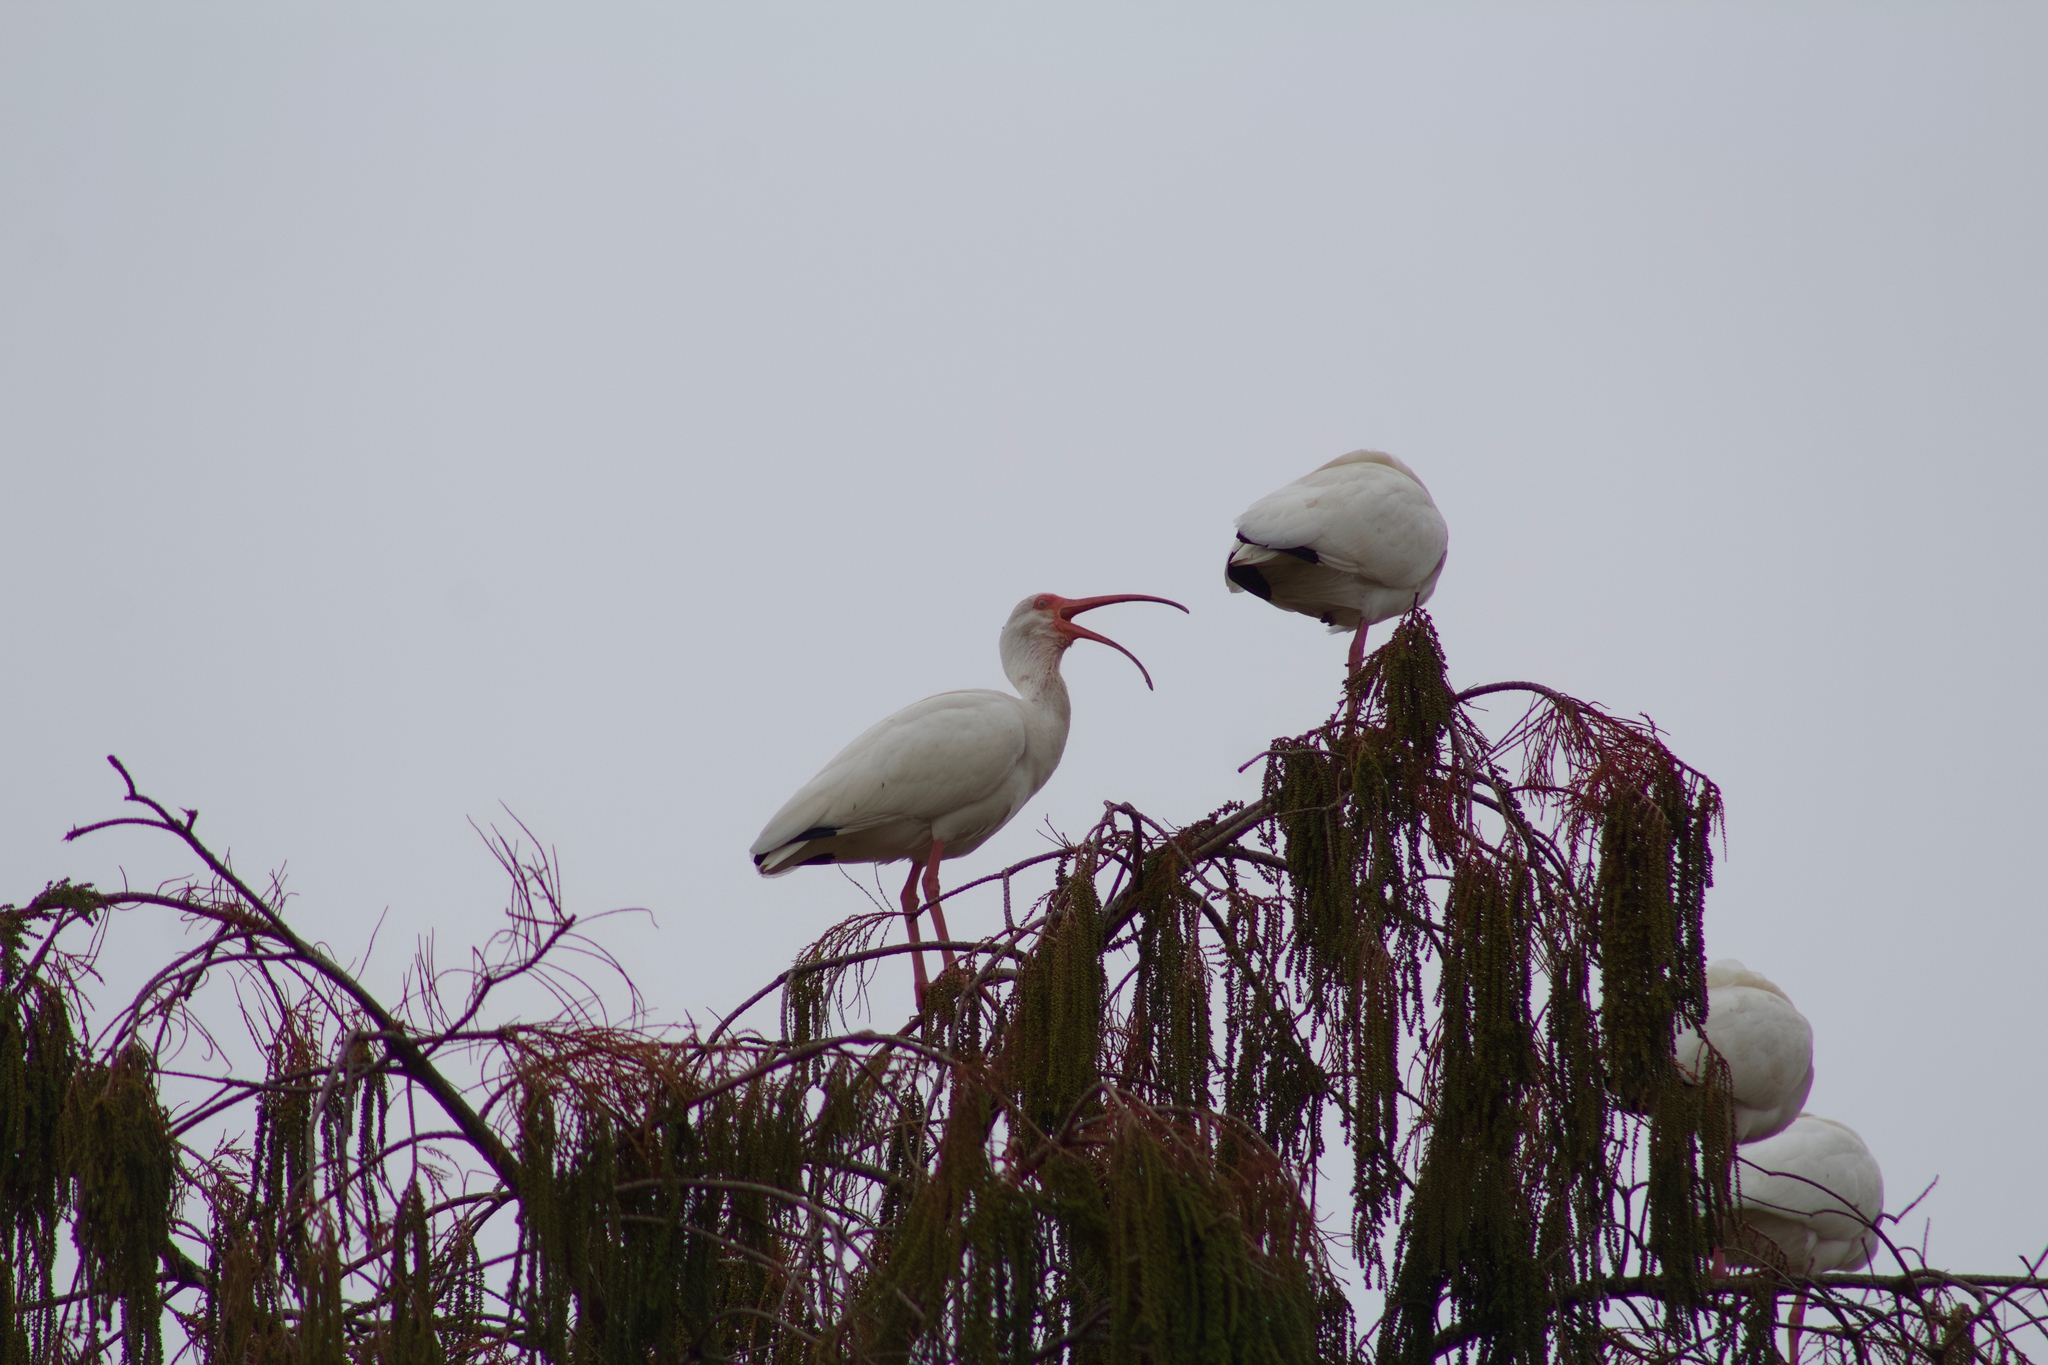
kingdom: Animalia
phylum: Chordata
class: Aves
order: Pelecaniformes
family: Threskiornithidae
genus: Eudocimus
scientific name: Eudocimus albus
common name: White ibis
